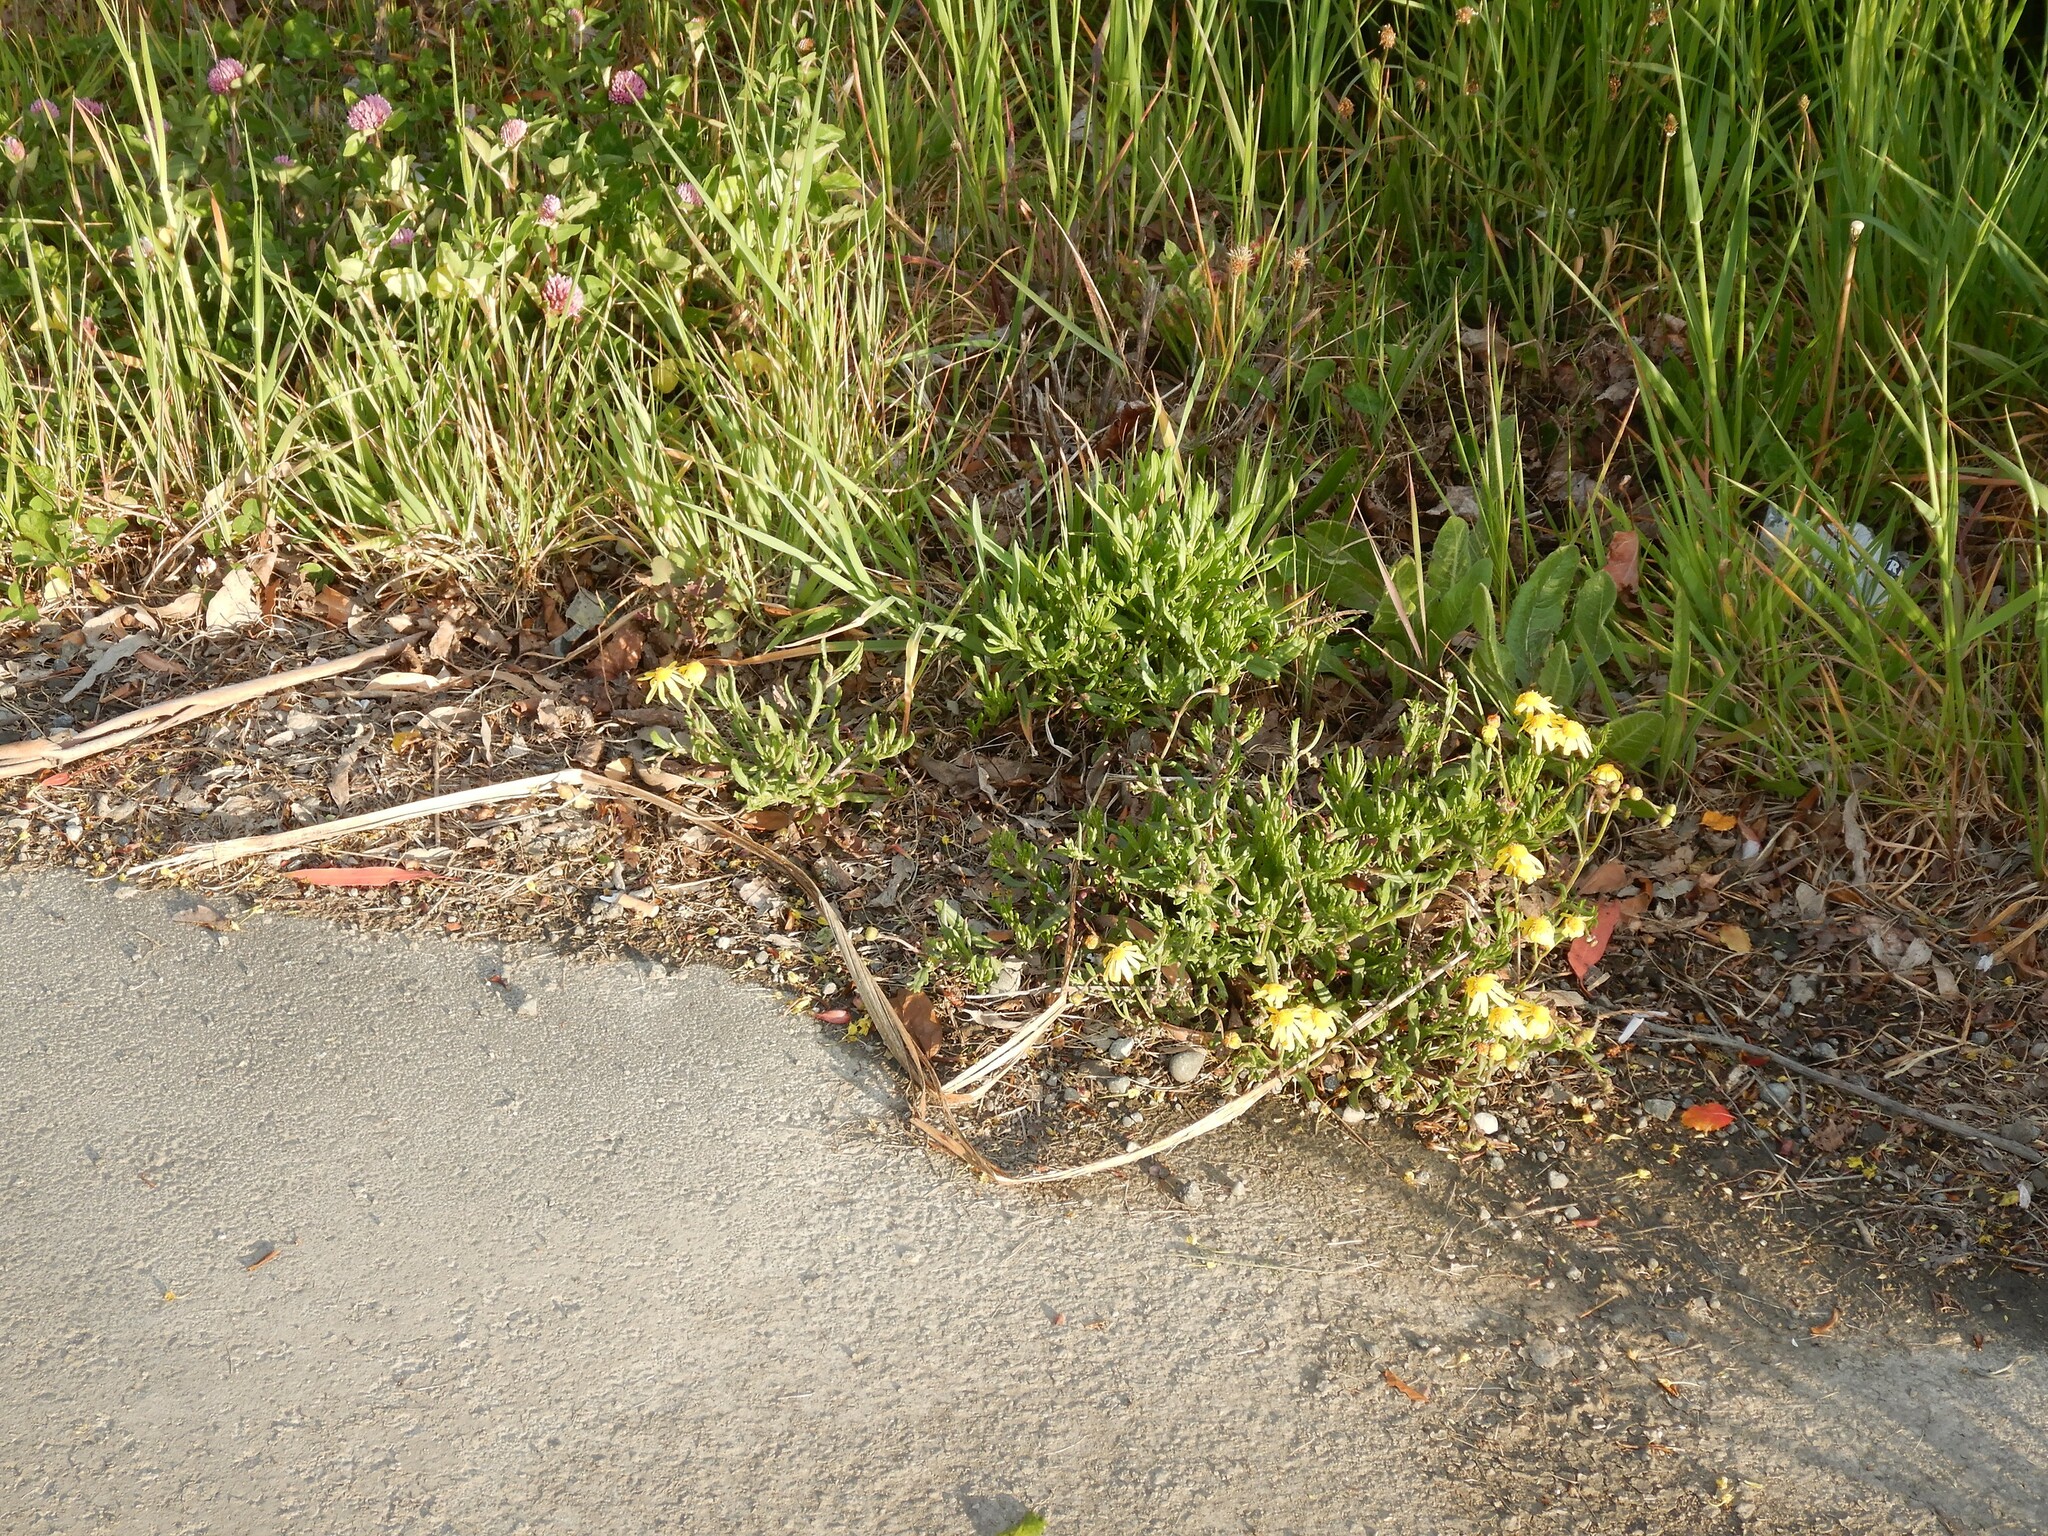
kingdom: Plantae
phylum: Tracheophyta
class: Magnoliopsida
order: Asterales
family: Asteraceae
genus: Senecio
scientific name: Senecio skirrhodon
